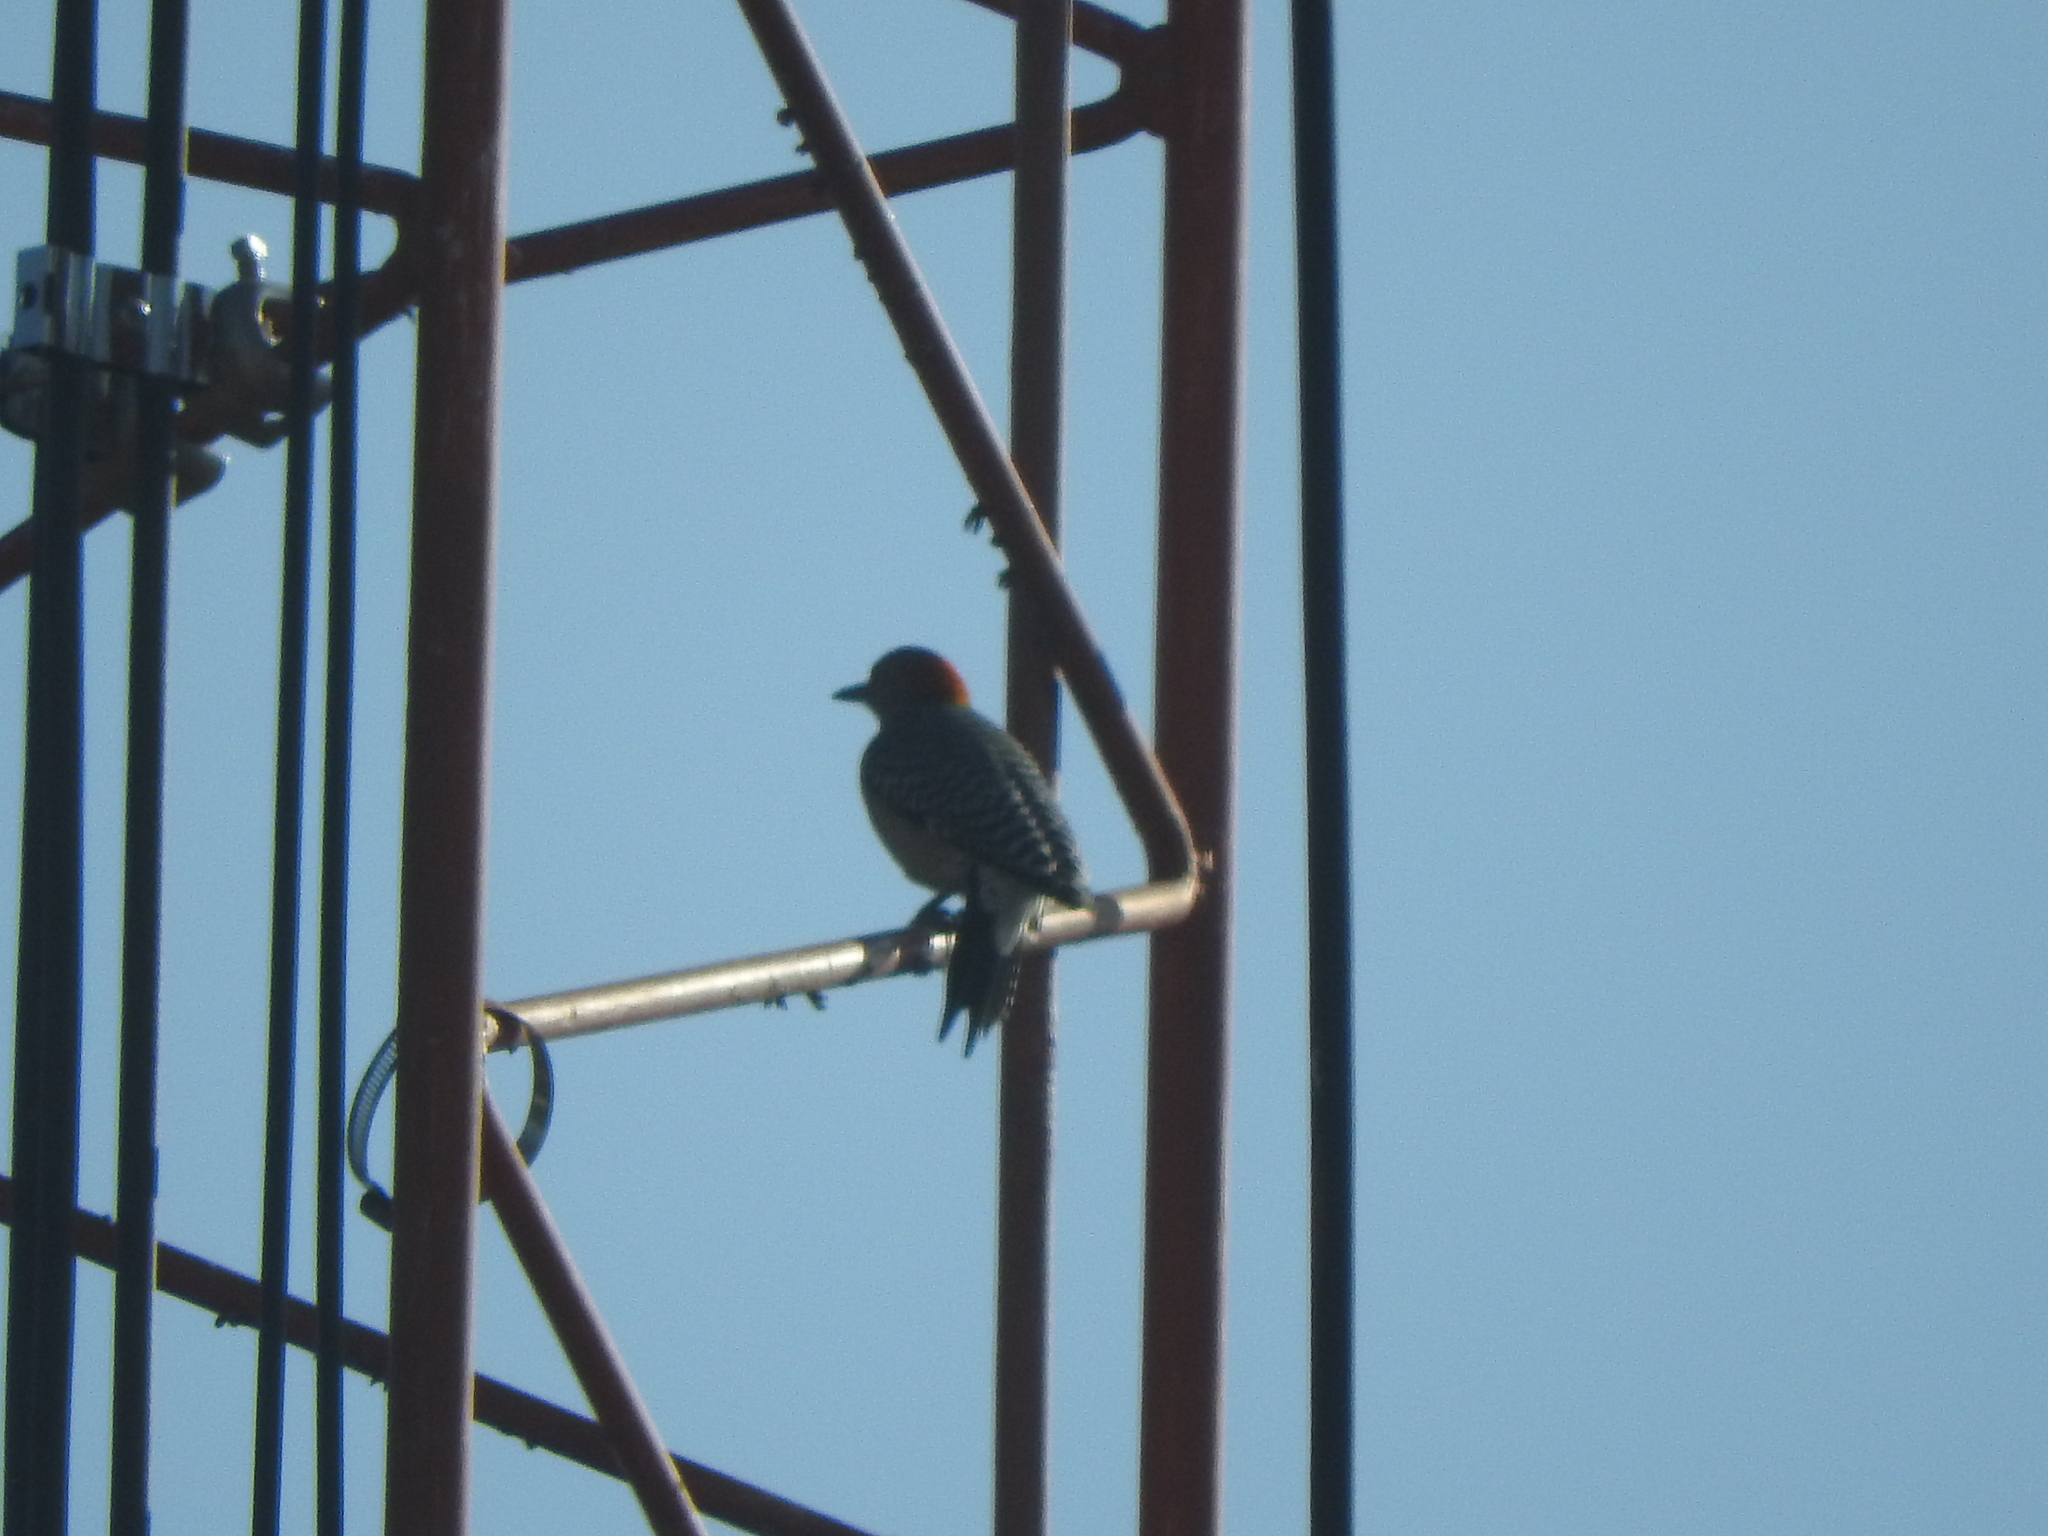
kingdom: Animalia
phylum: Chordata
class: Aves
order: Piciformes
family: Picidae
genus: Melanerpes
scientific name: Melanerpes aurifrons
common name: Golden-fronted woodpecker
